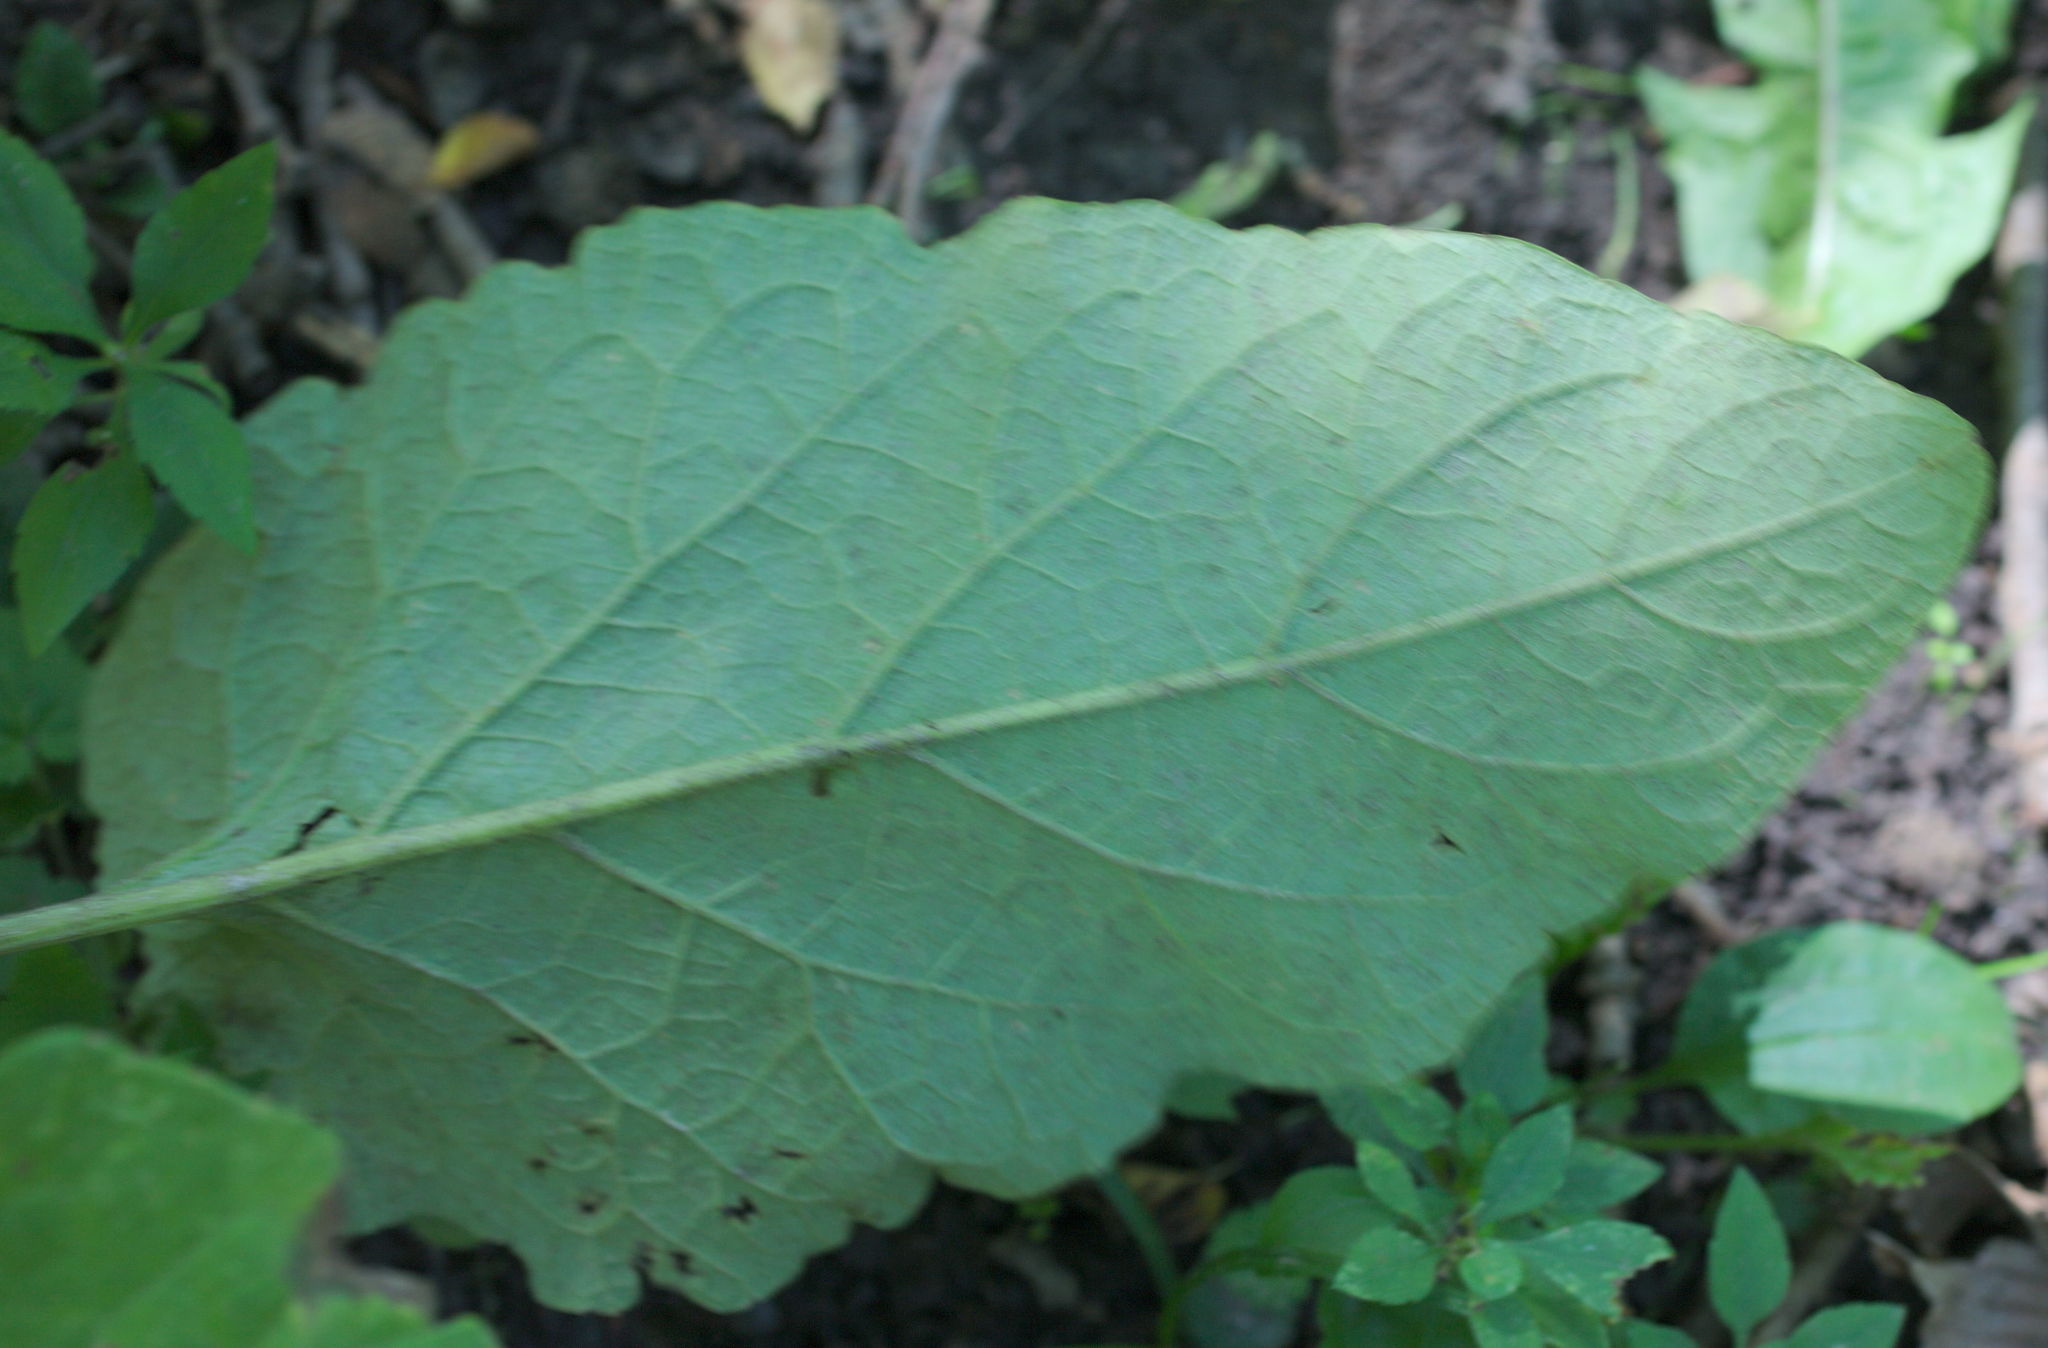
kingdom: Plantae
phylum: Tracheophyta
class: Magnoliopsida
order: Asterales
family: Asteraceae
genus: Arctium
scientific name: Arctium minus
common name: Lesser burdock
